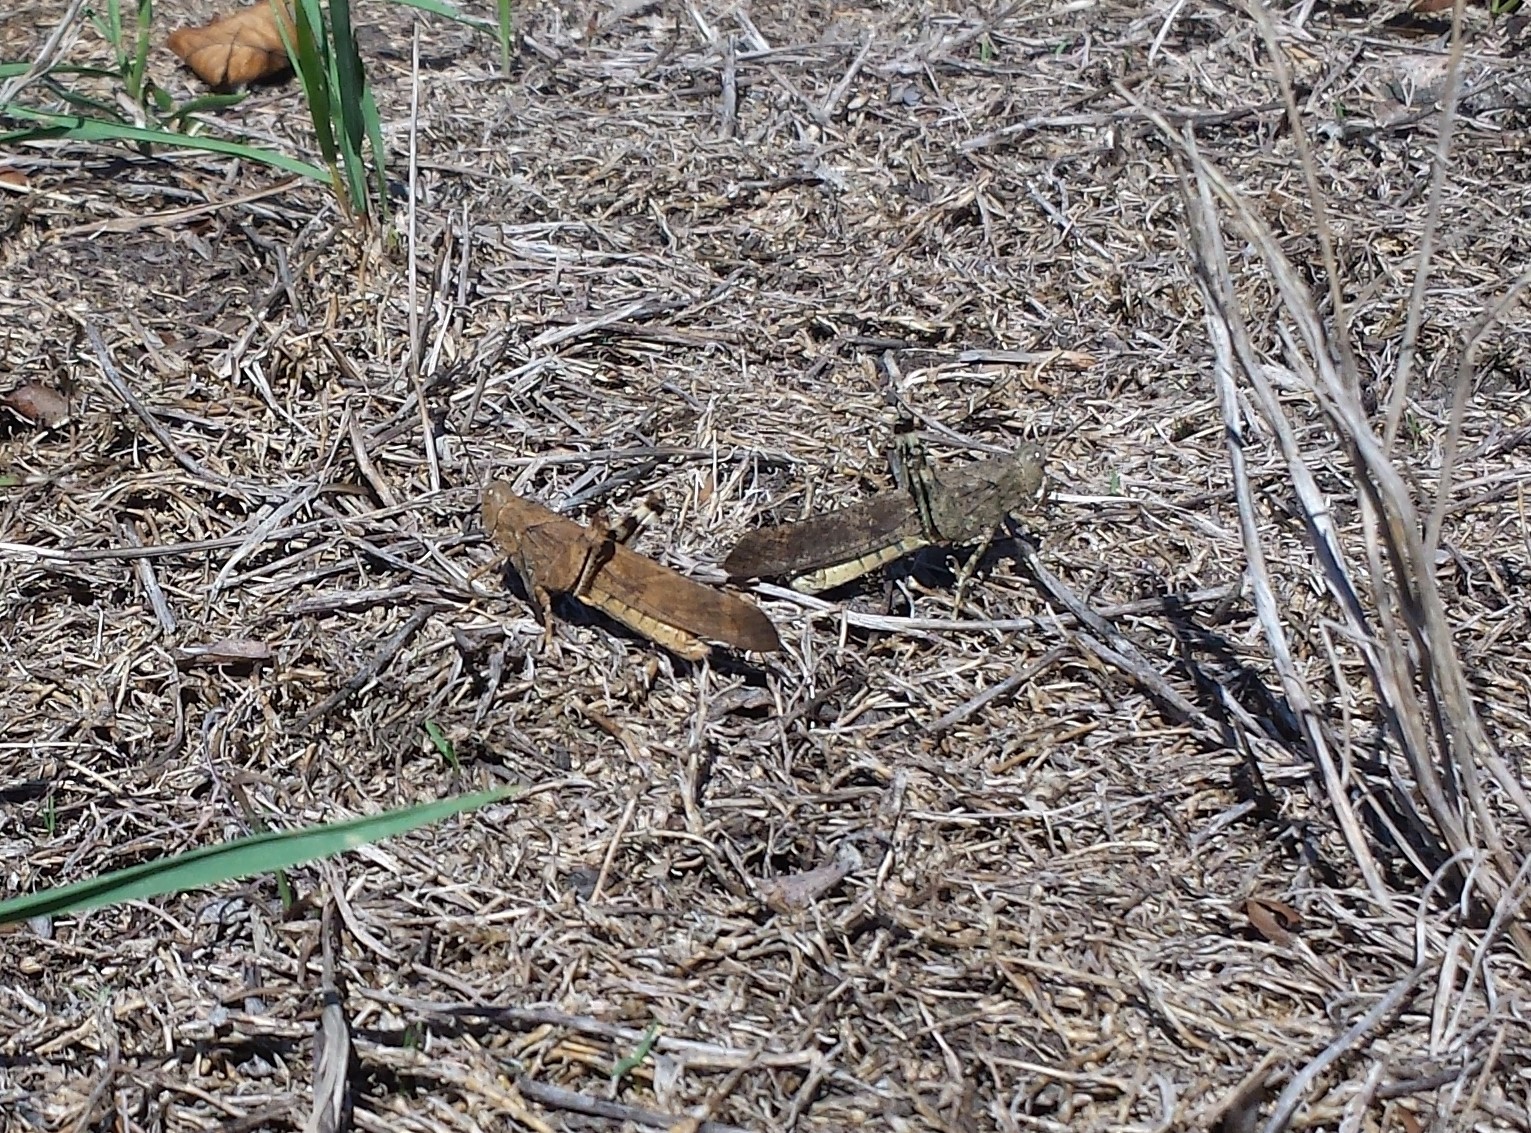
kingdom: Animalia
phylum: Arthropoda
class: Insecta
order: Orthoptera
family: Acrididae
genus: Dissosteira
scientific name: Dissosteira carolina
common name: Carolina grasshopper
